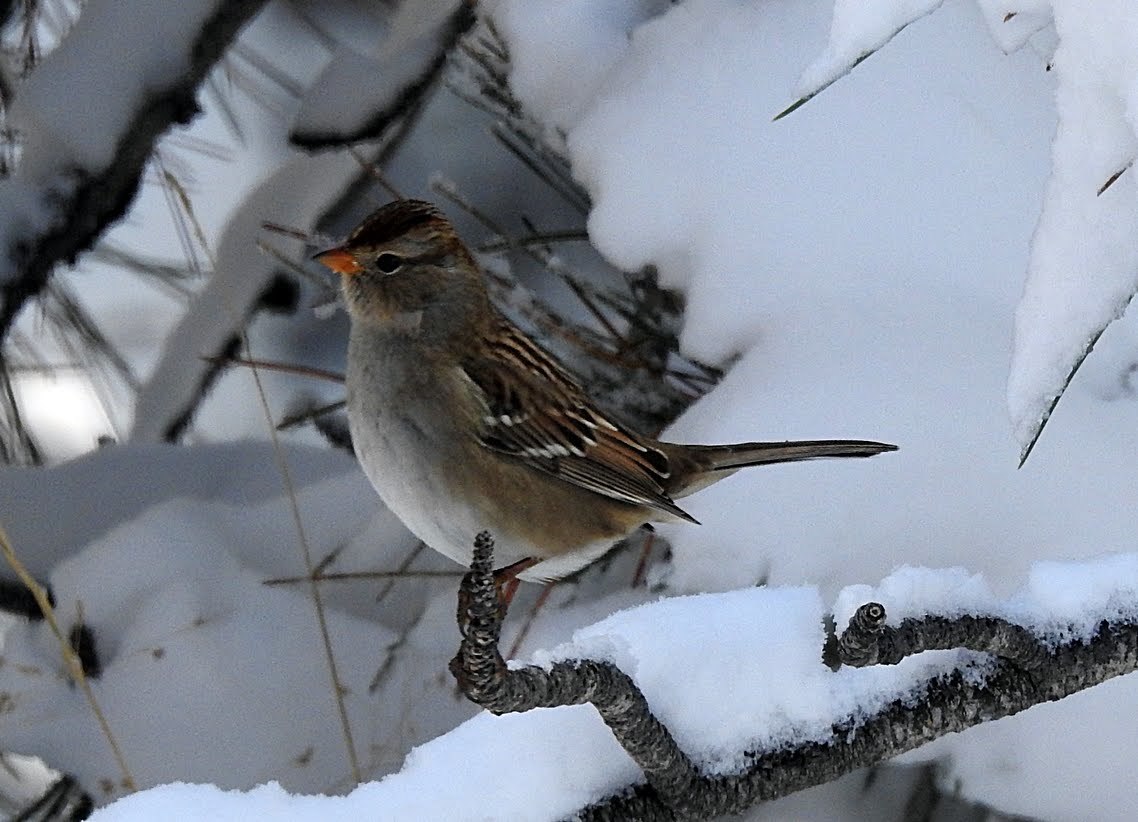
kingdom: Animalia
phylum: Chordata
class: Aves
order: Passeriformes
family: Passerellidae
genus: Zonotrichia
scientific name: Zonotrichia leucophrys
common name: White-crowned sparrow
